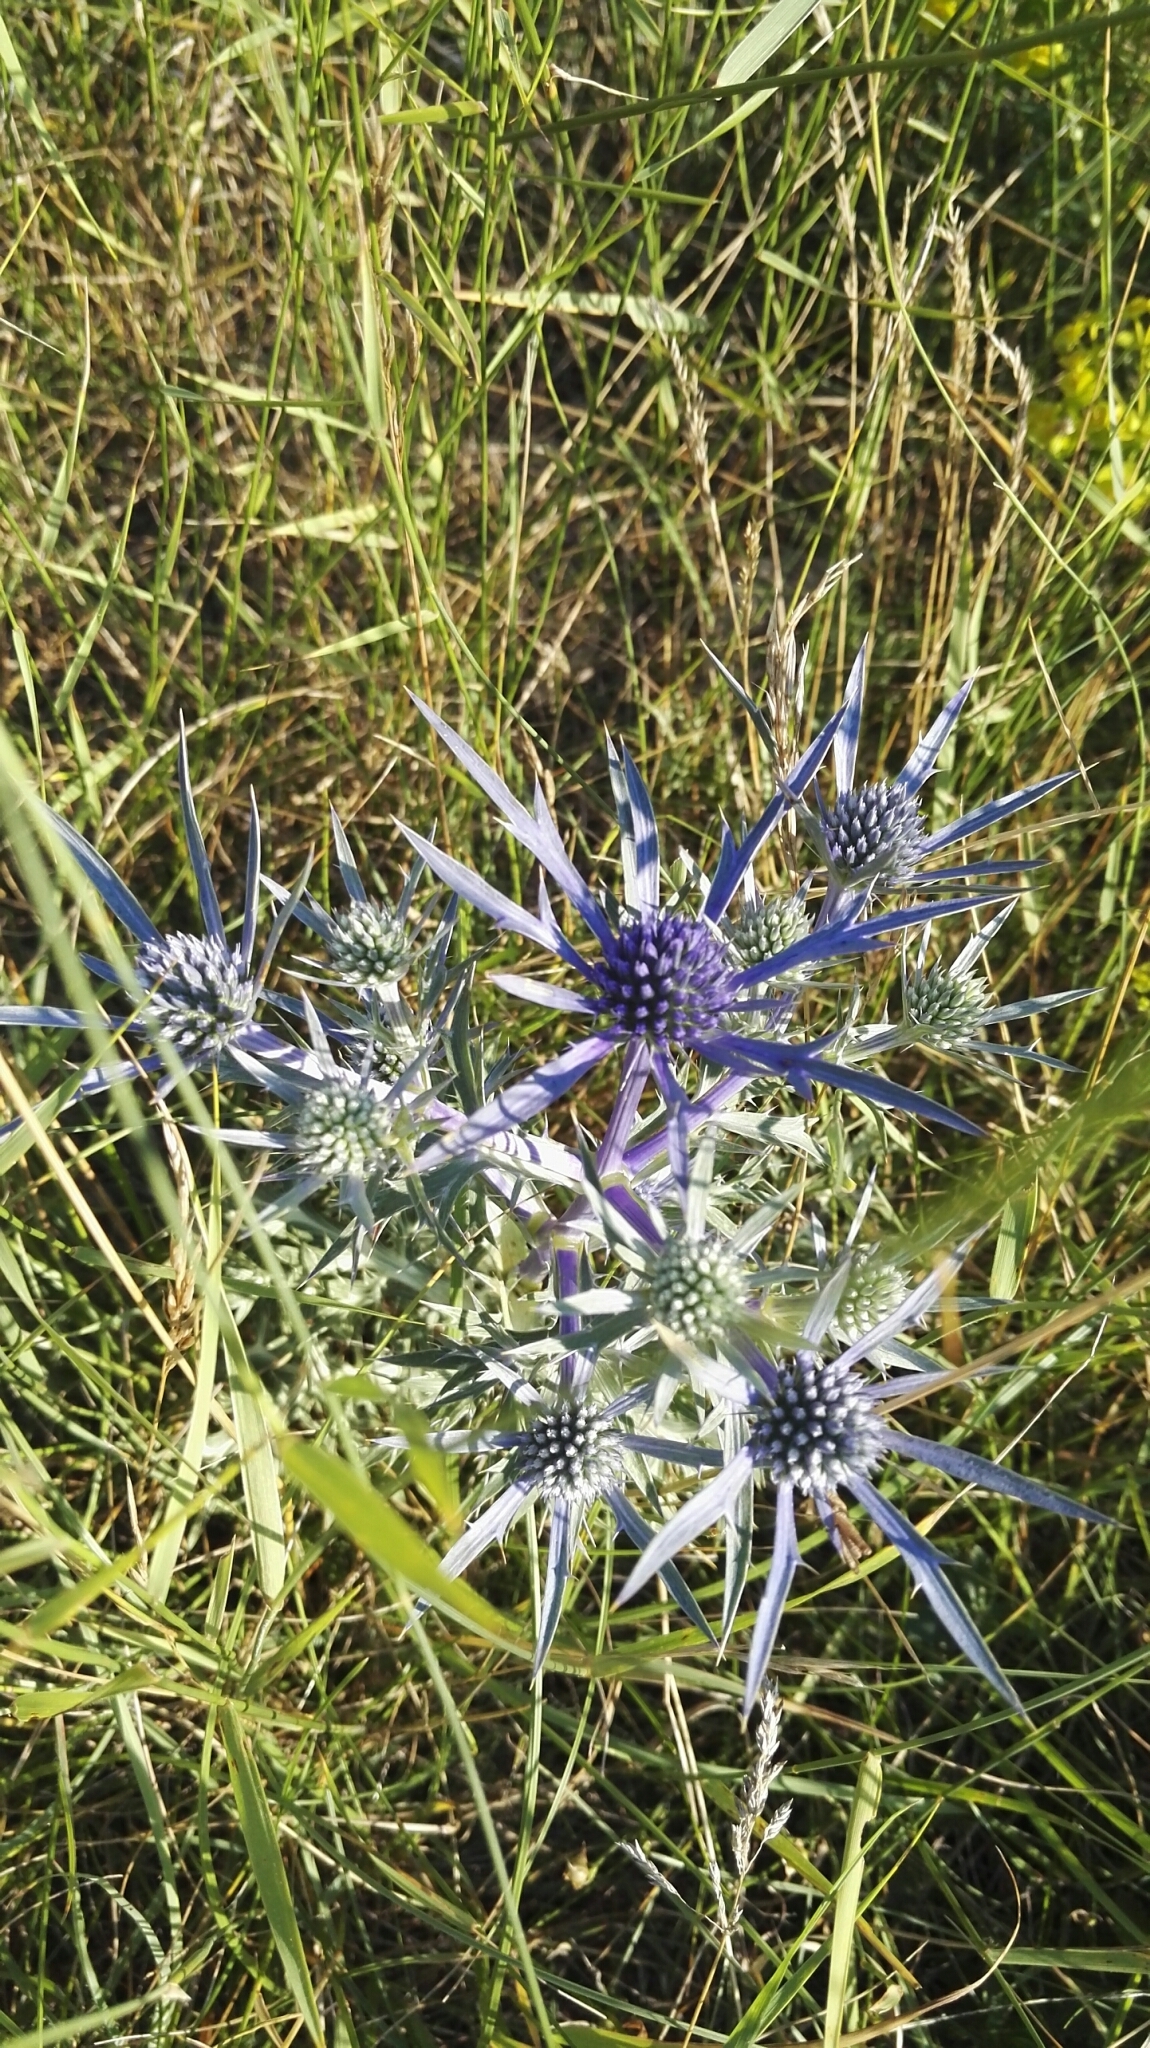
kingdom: Plantae
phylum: Tracheophyta
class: Magnoliopsida
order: Apiales
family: Apiaceae
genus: Eryngium
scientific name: Eryngium amethystinum
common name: Amethyst eryngo
